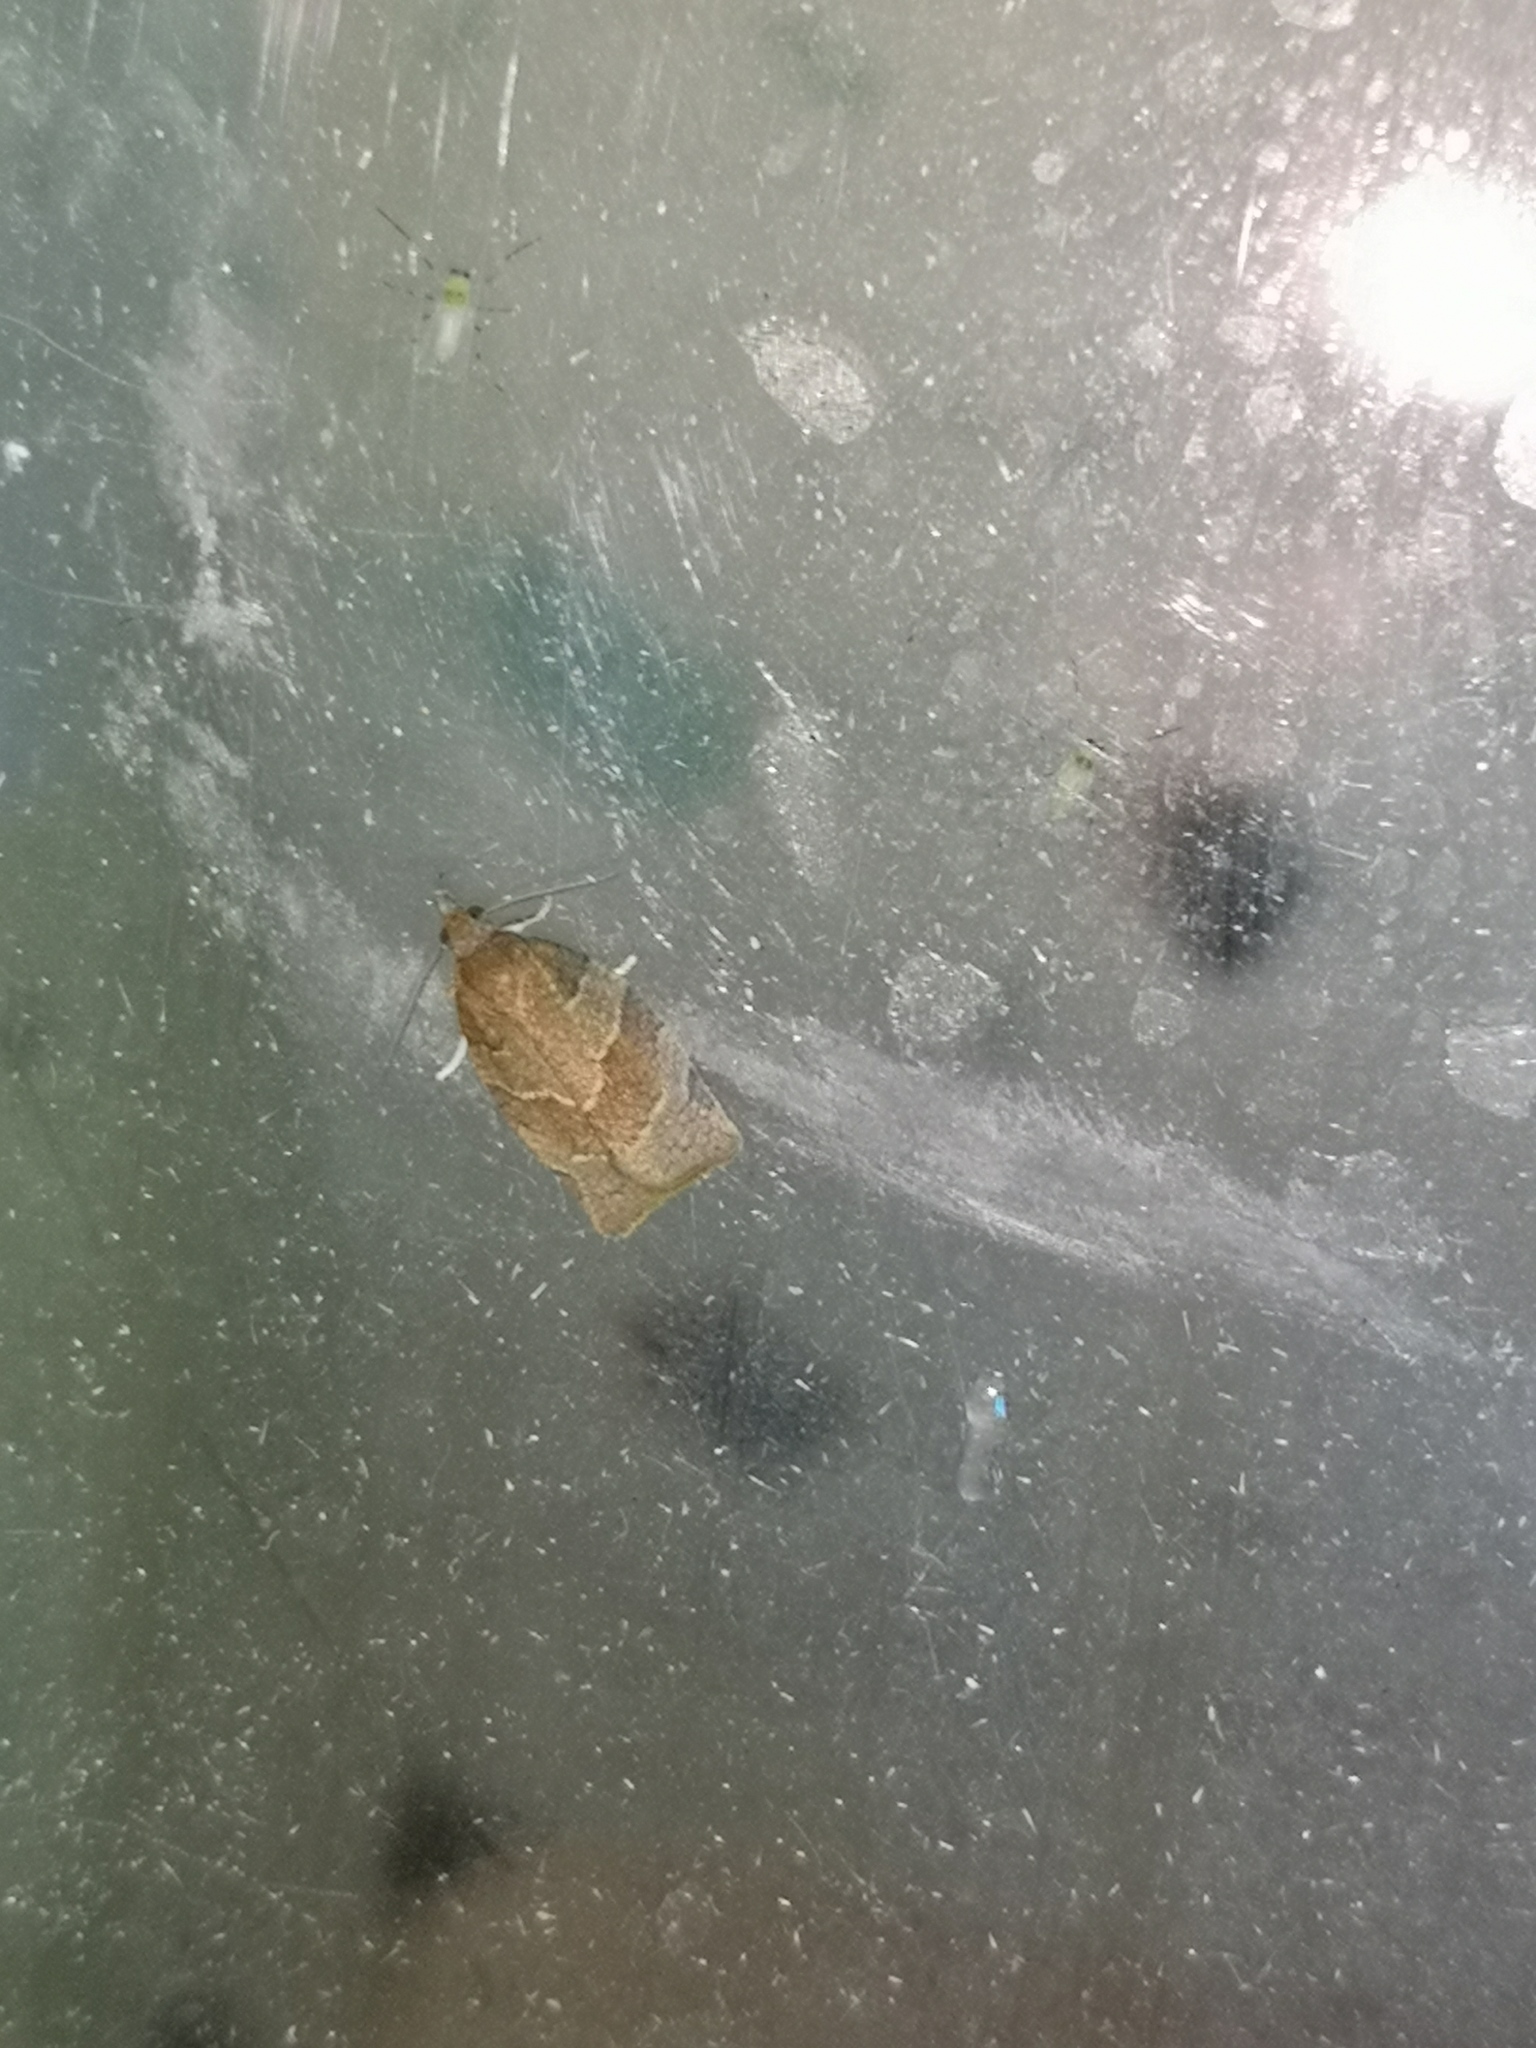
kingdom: Animalia
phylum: Arthropoda
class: Insecta
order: Lepidoptera
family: Tortricidae
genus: Pandemis
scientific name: Pandemis heparana
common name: Dark fruit-tree tortrix
